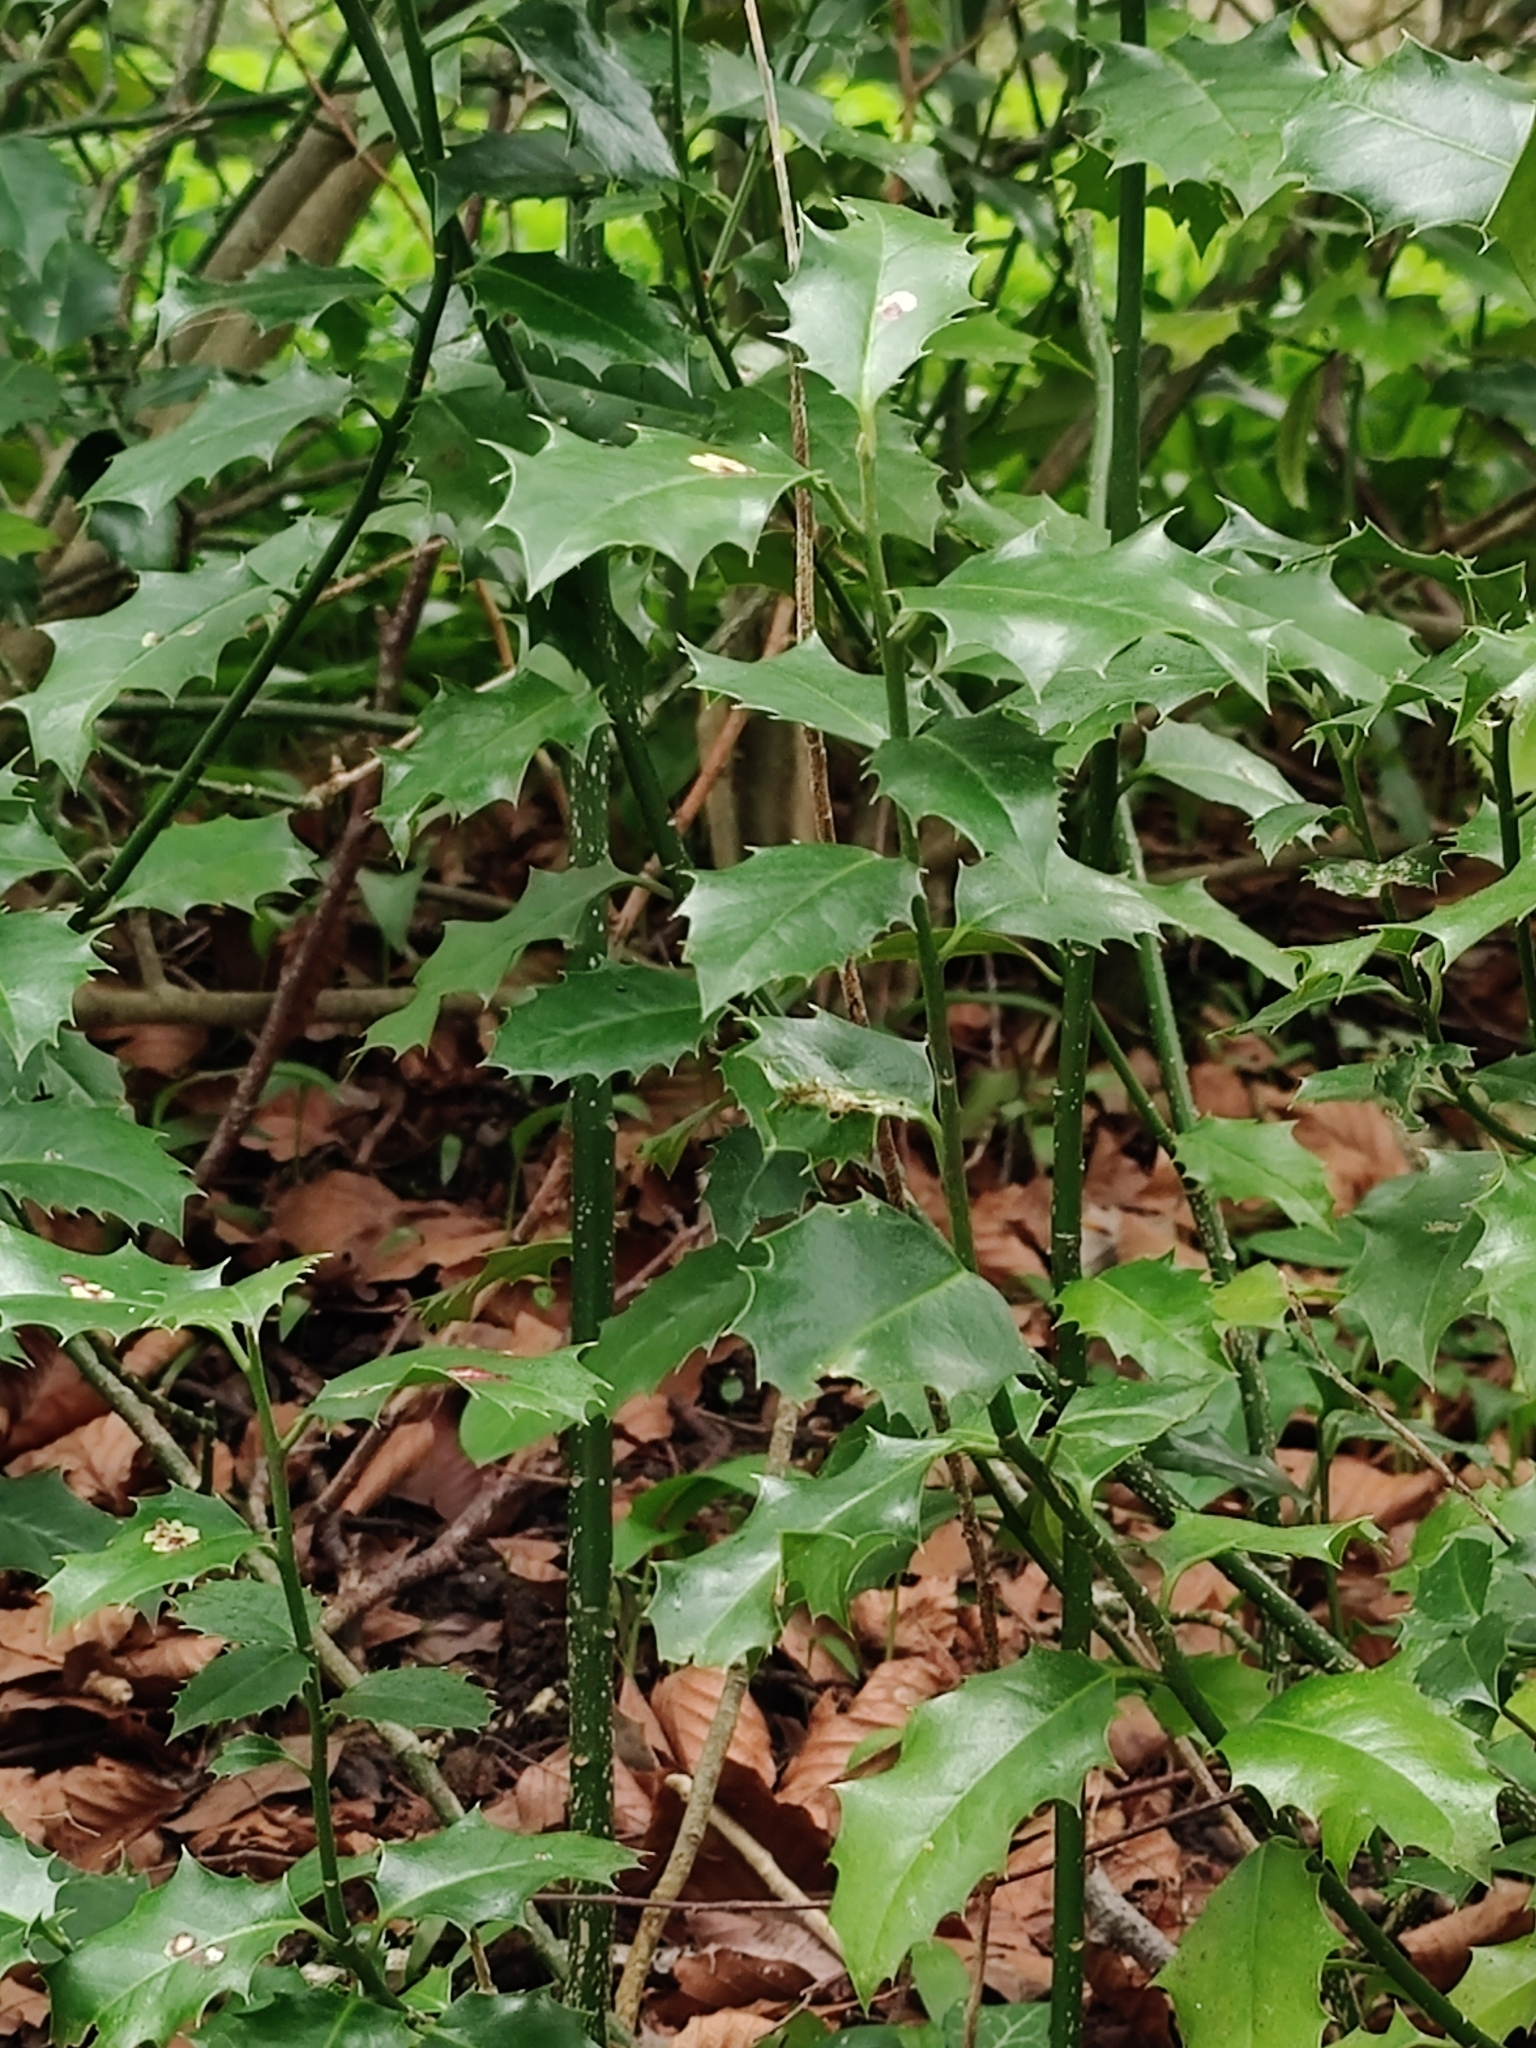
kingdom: Plantae
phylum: Tracheophyta
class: Magnoliopsida
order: Aquifoliales
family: Aquifoliaceae
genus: Ilex
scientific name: Ilex aquifolium
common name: English holly
